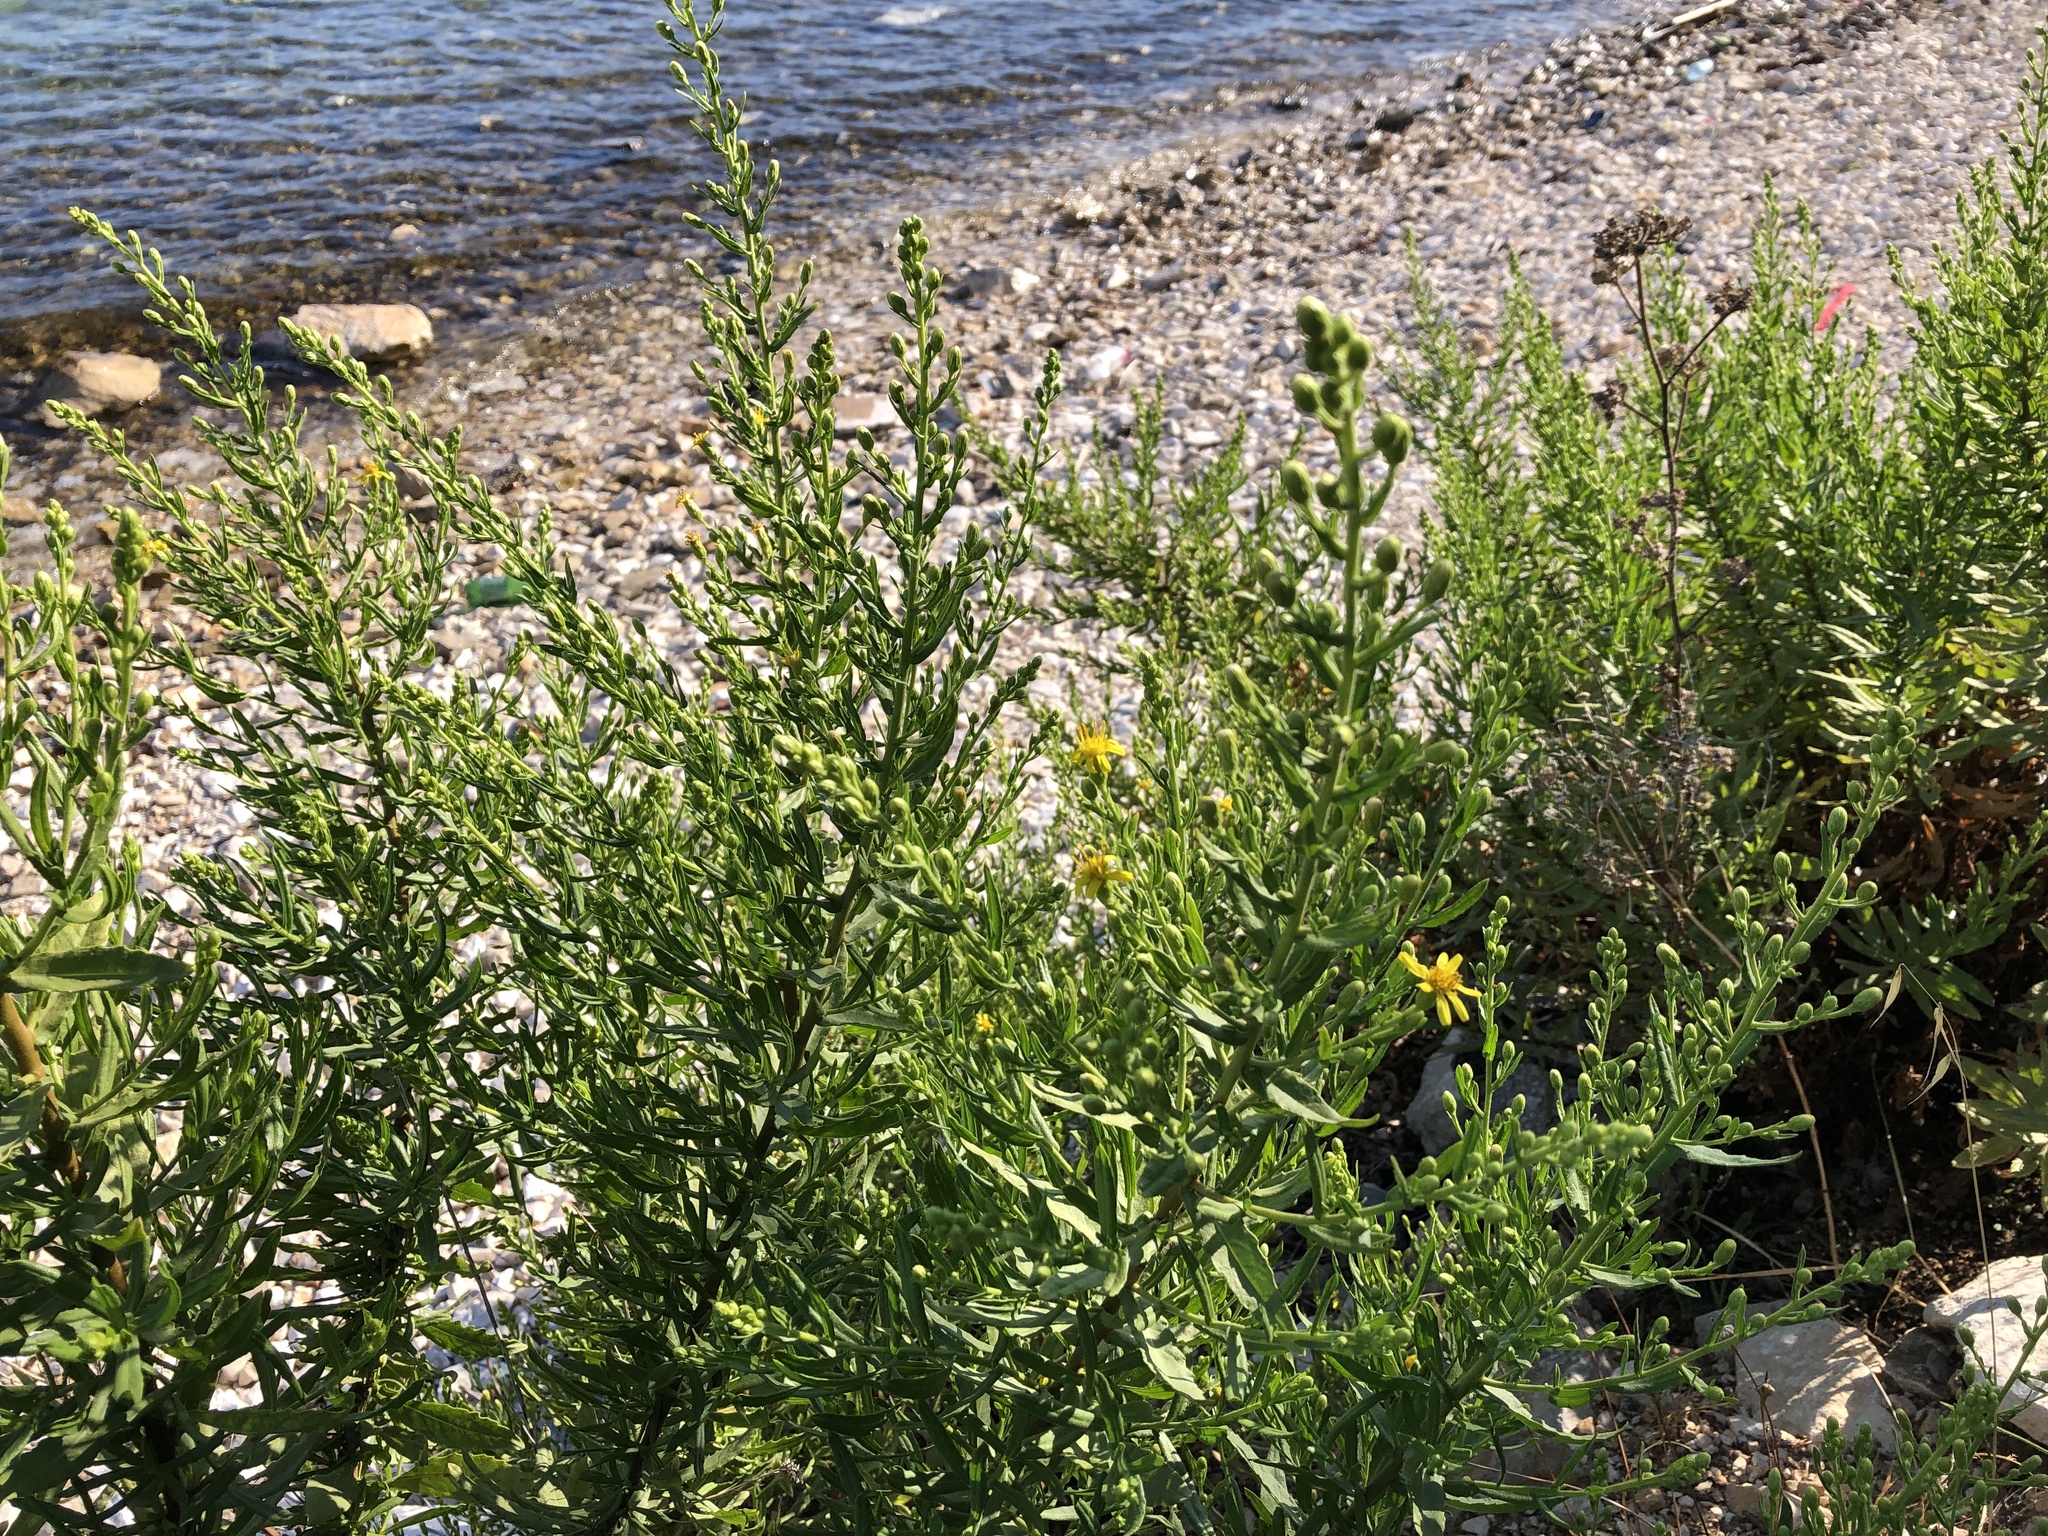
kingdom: Plantae
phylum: Tracheophyta
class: Magnoliopsida
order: Asterales
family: Asteraceae
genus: Dittrichia
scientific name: Dittrichia viscosa
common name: Woody fleabane
